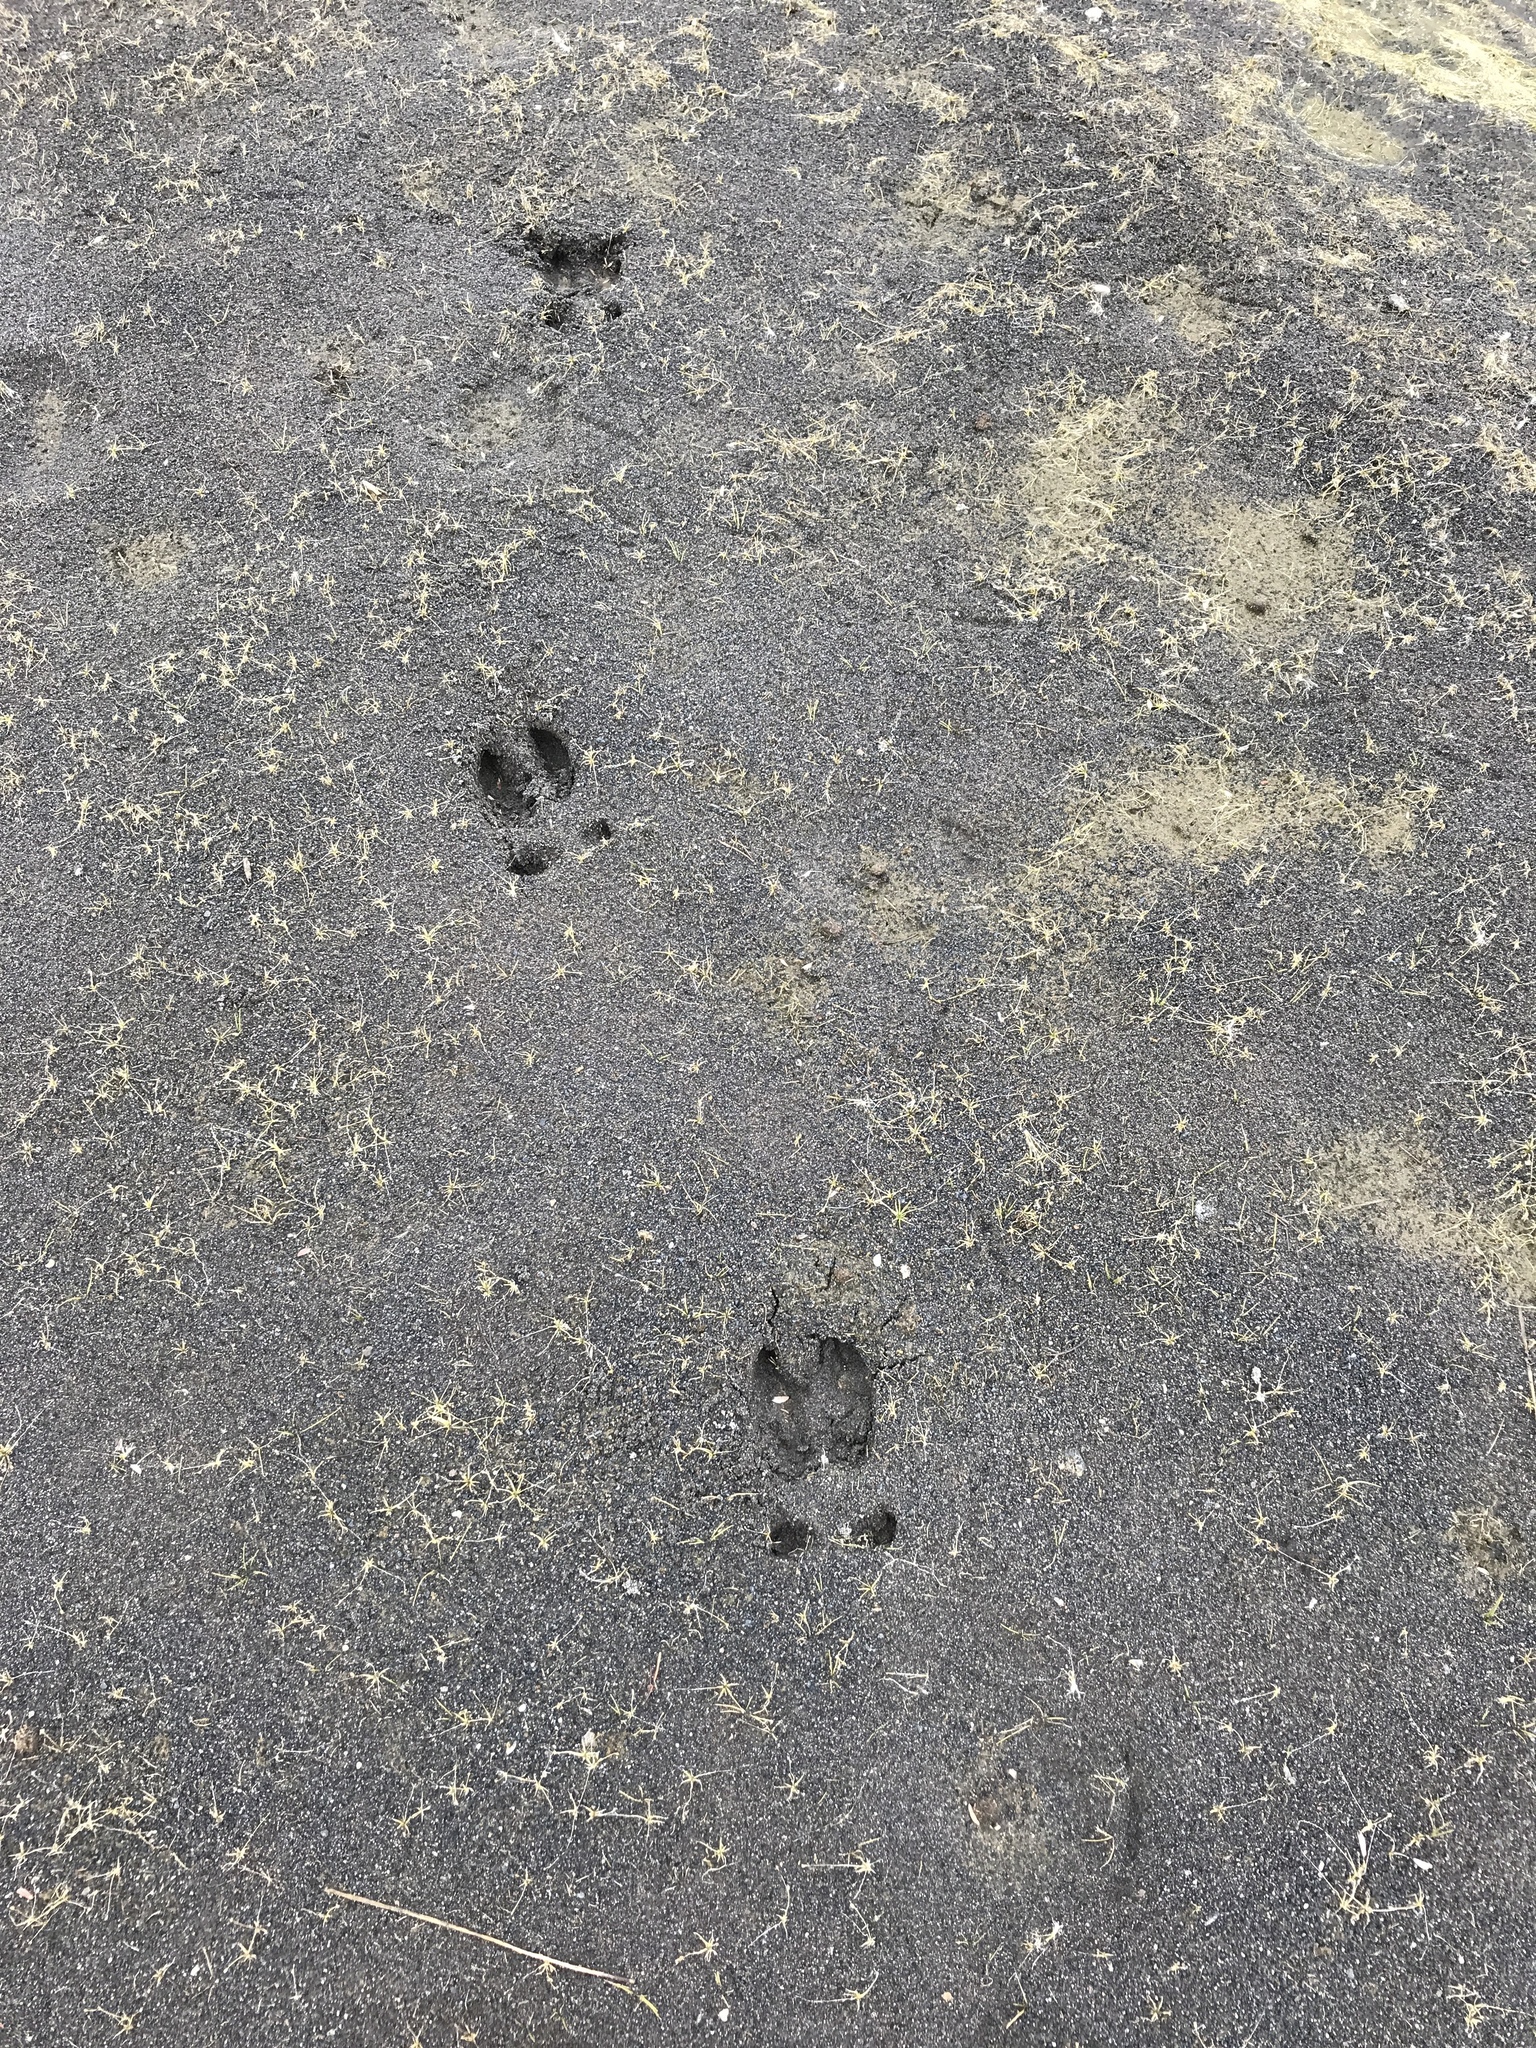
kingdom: Animalia
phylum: Chordata
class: Mammalia
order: Artiodactyla
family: Cervidae
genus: Cervus
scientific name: Cervus elaphus
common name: Red deer
